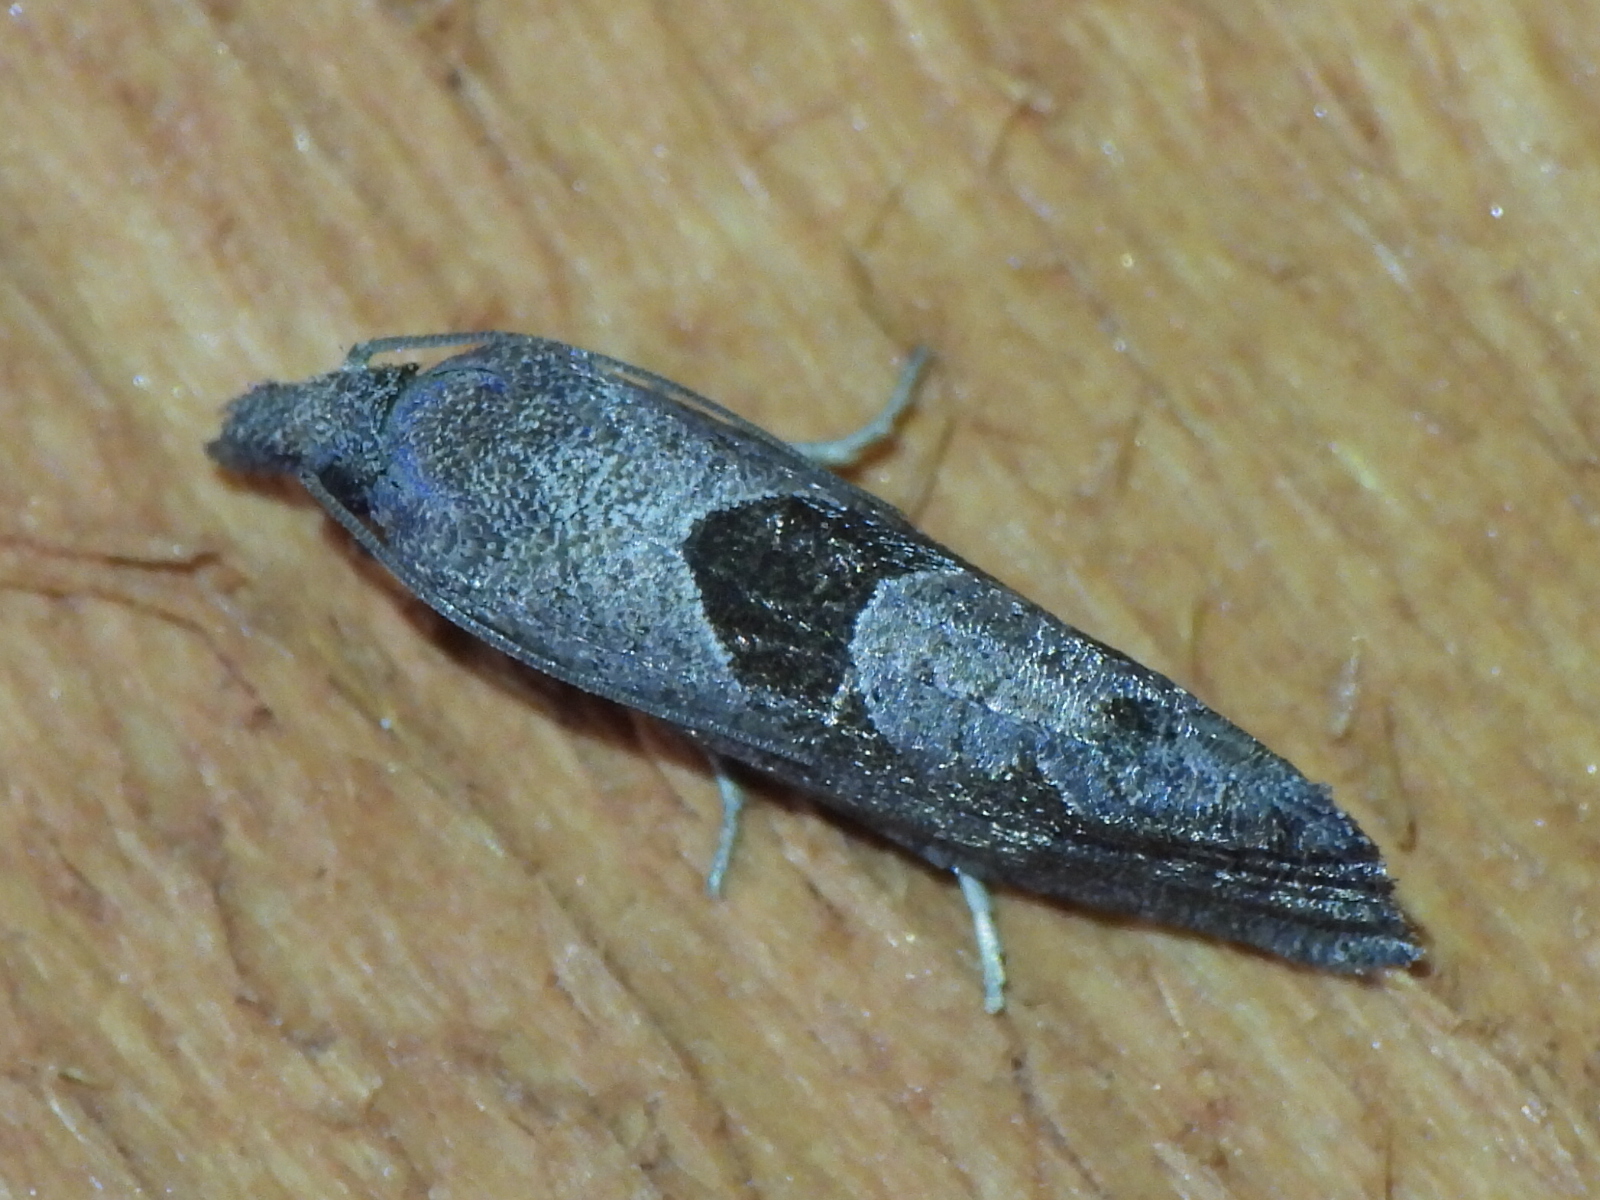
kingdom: Animalia
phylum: Arthropoda
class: Insecta
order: Lepidoptera
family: Tortricidae
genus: Pelochrista
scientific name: Pelochrista dorsisignatana
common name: Triangle-backed pelochrista moth
